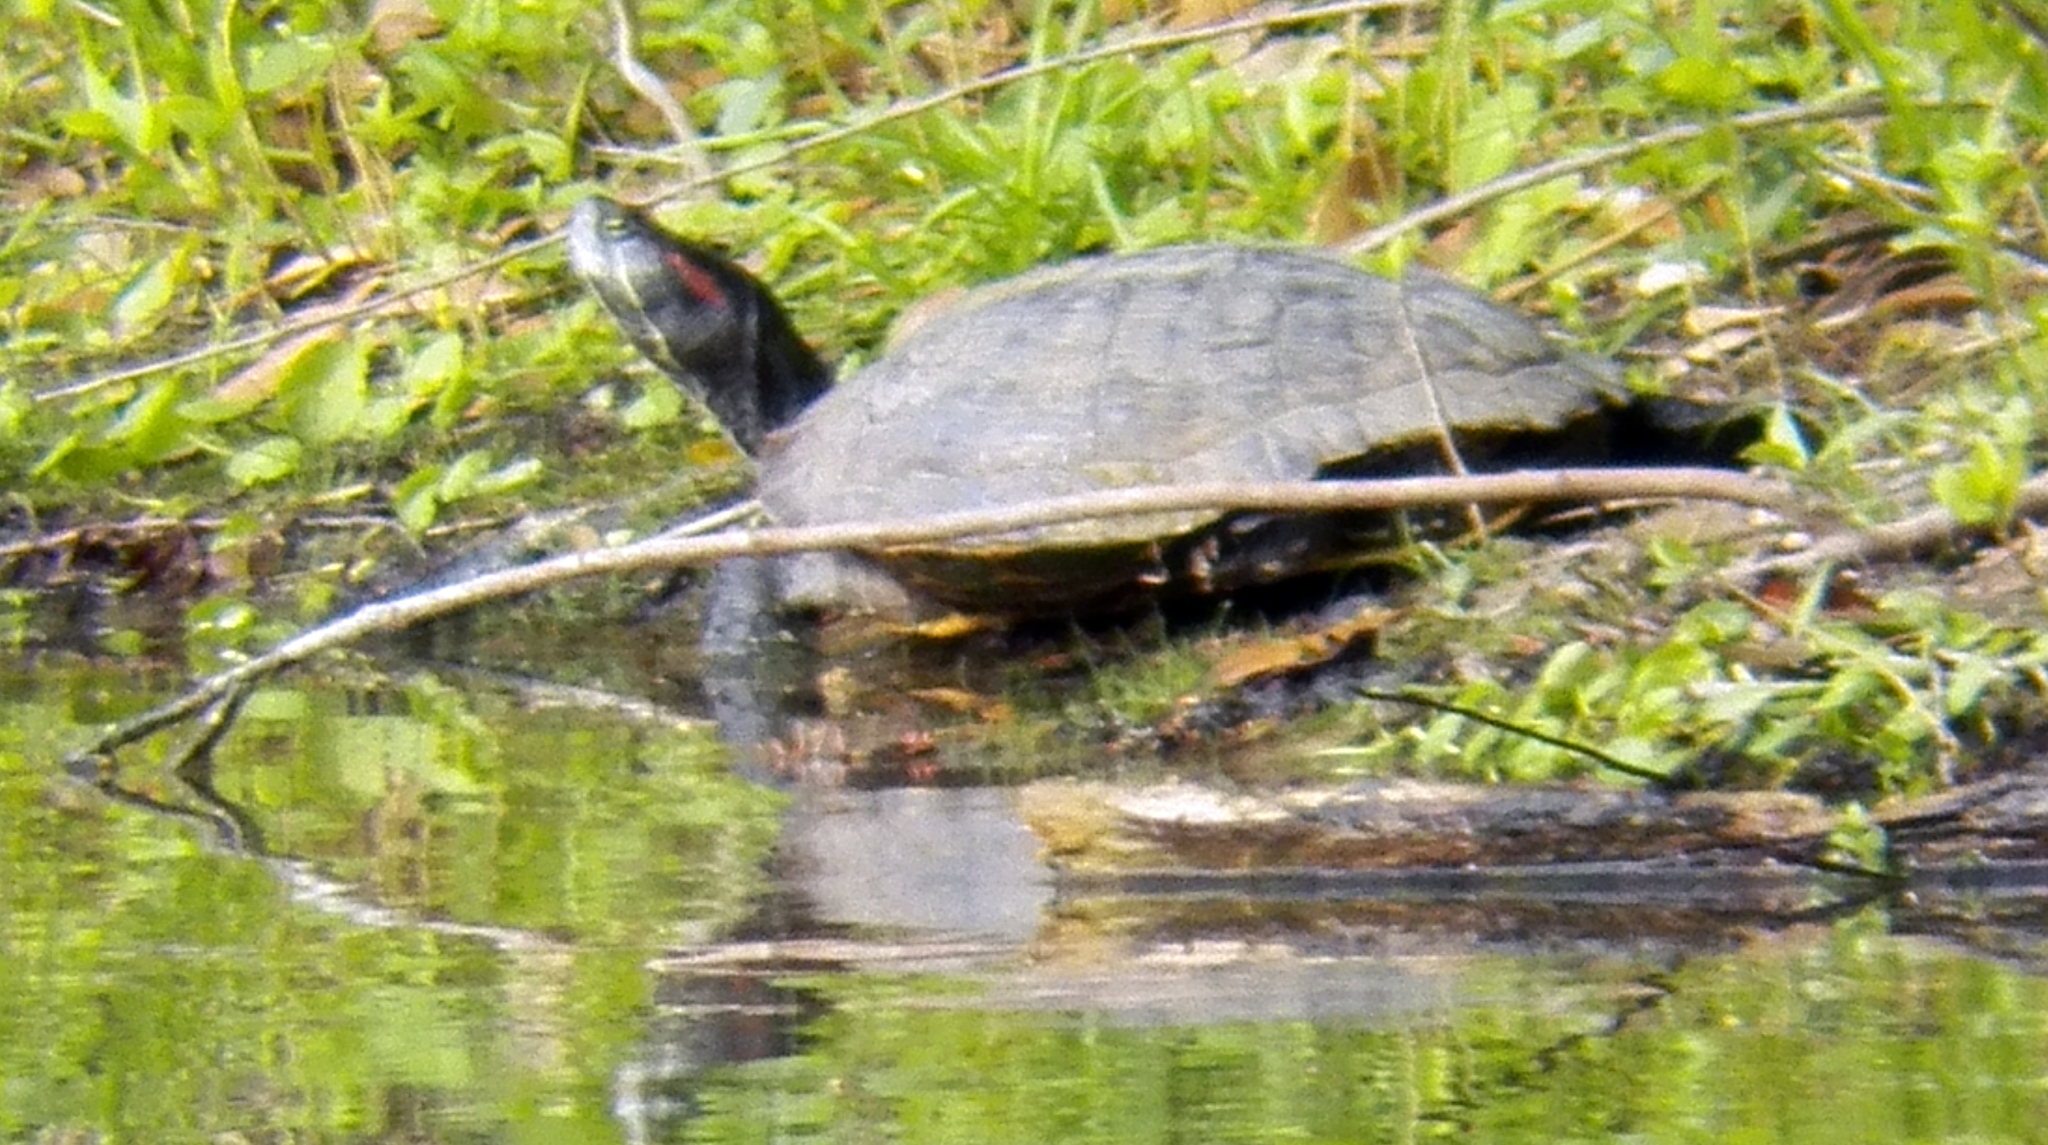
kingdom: Animalia
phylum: Chordata
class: Testudines
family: Emydidae
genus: Trachemys
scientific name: Trachemys scripta
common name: Slider
